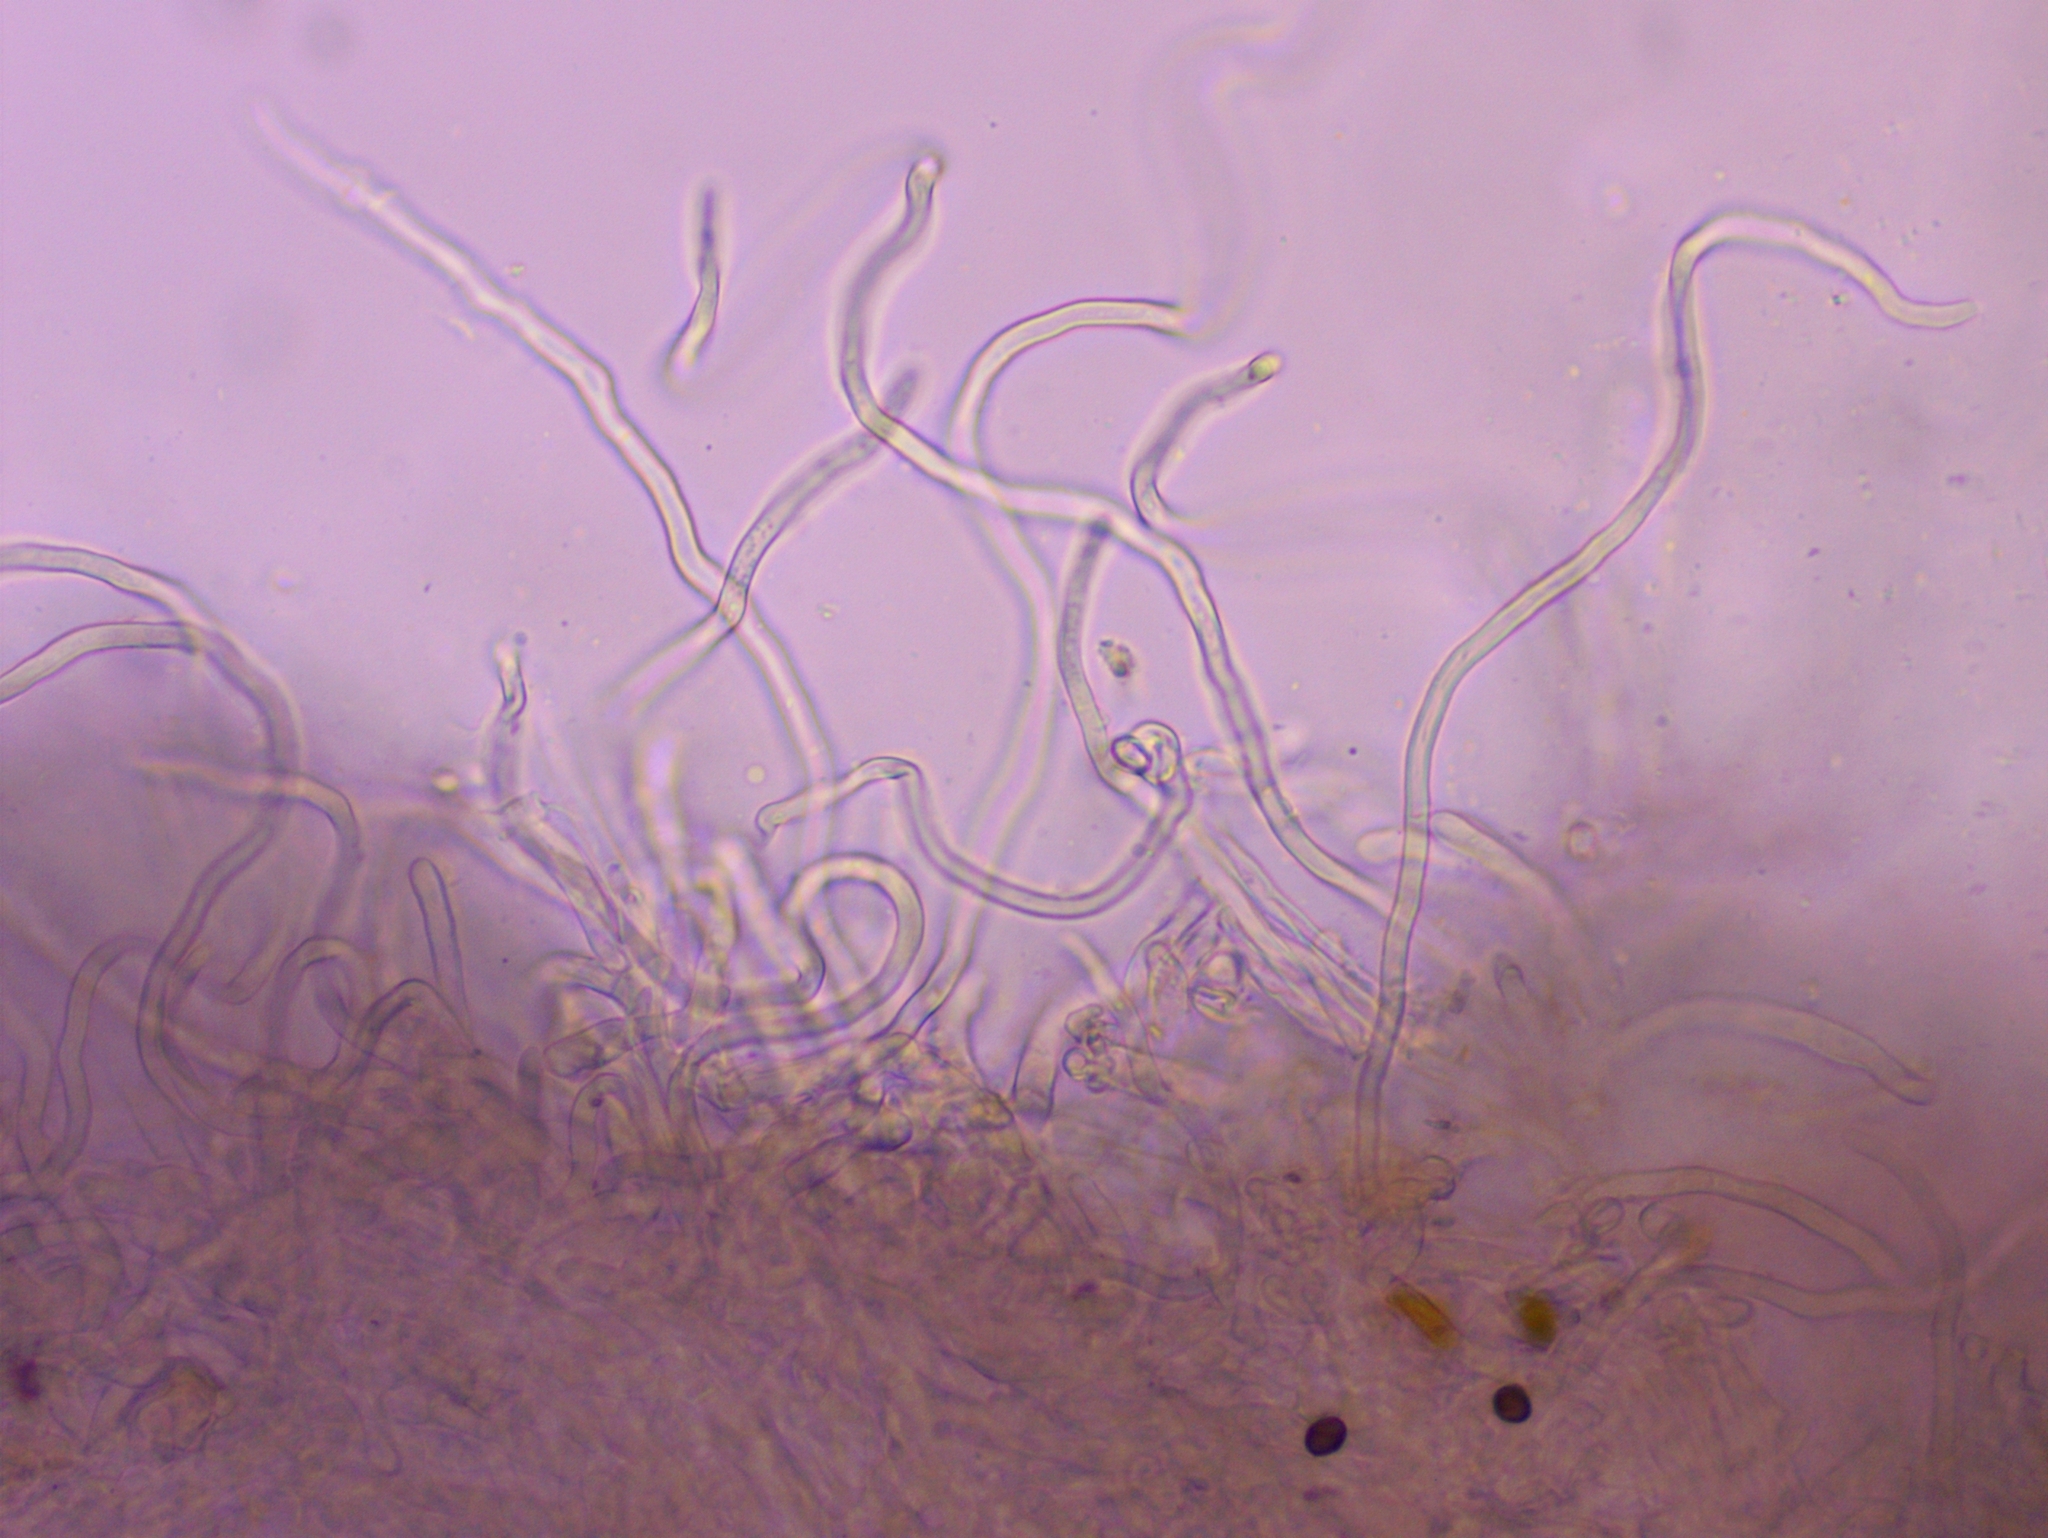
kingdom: Fungi
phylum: Ascomycota
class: Pezizomycetes
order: Pezizales
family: Sarcoscyphaceae
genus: Sarcoscypha
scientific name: Sarcoscypha austriaca
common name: Scarlet elfcup
